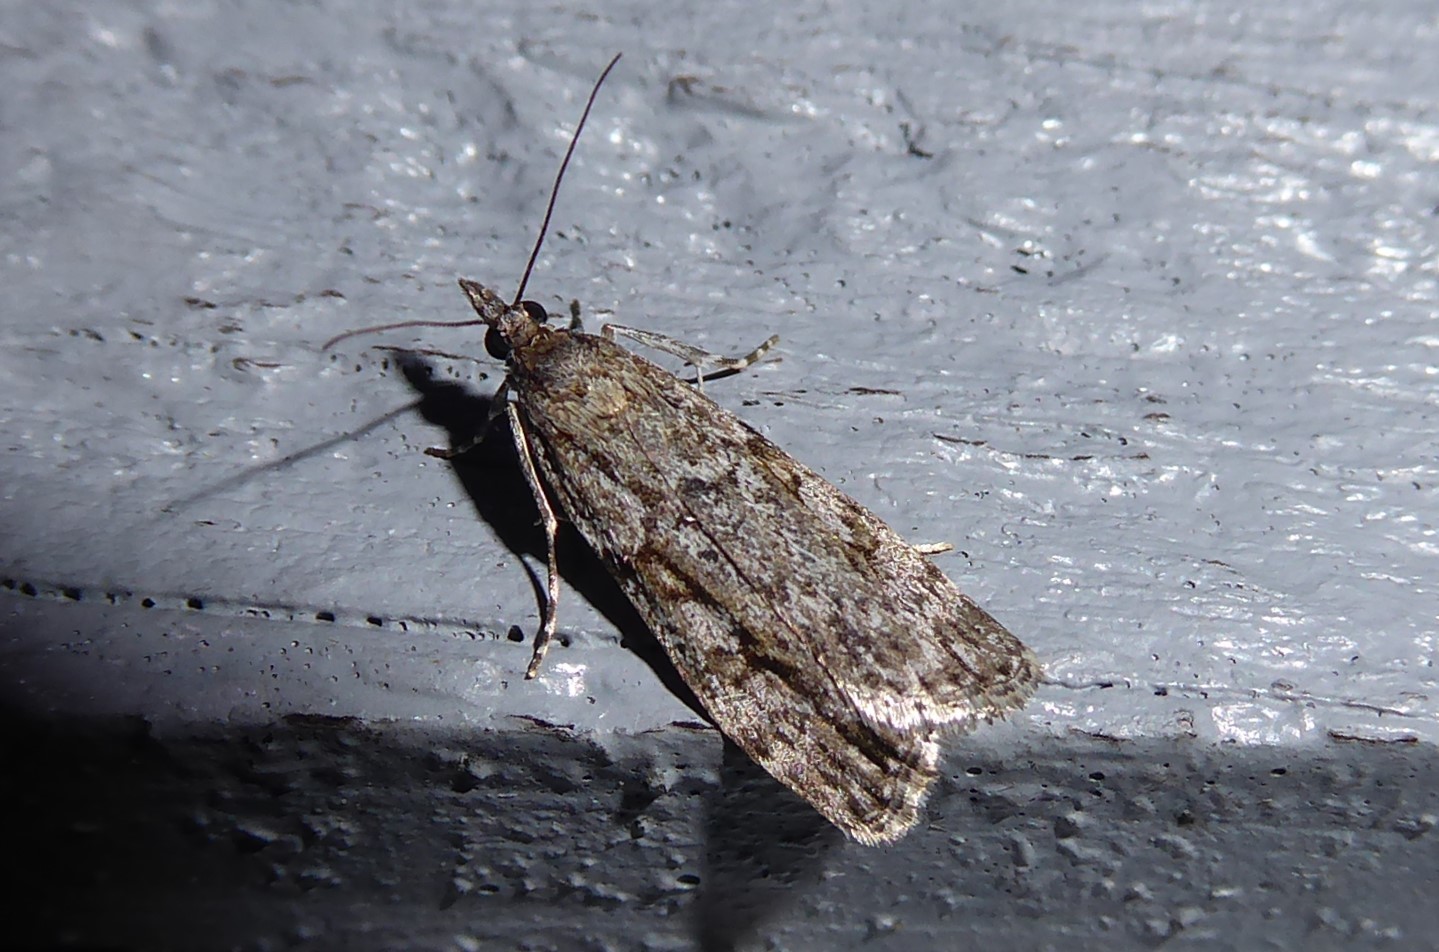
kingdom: Animalia
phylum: Arthropoda
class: Insecta
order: Lepidoptera
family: Crambidae
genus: Eudonia
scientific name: Eudonia cymatias
